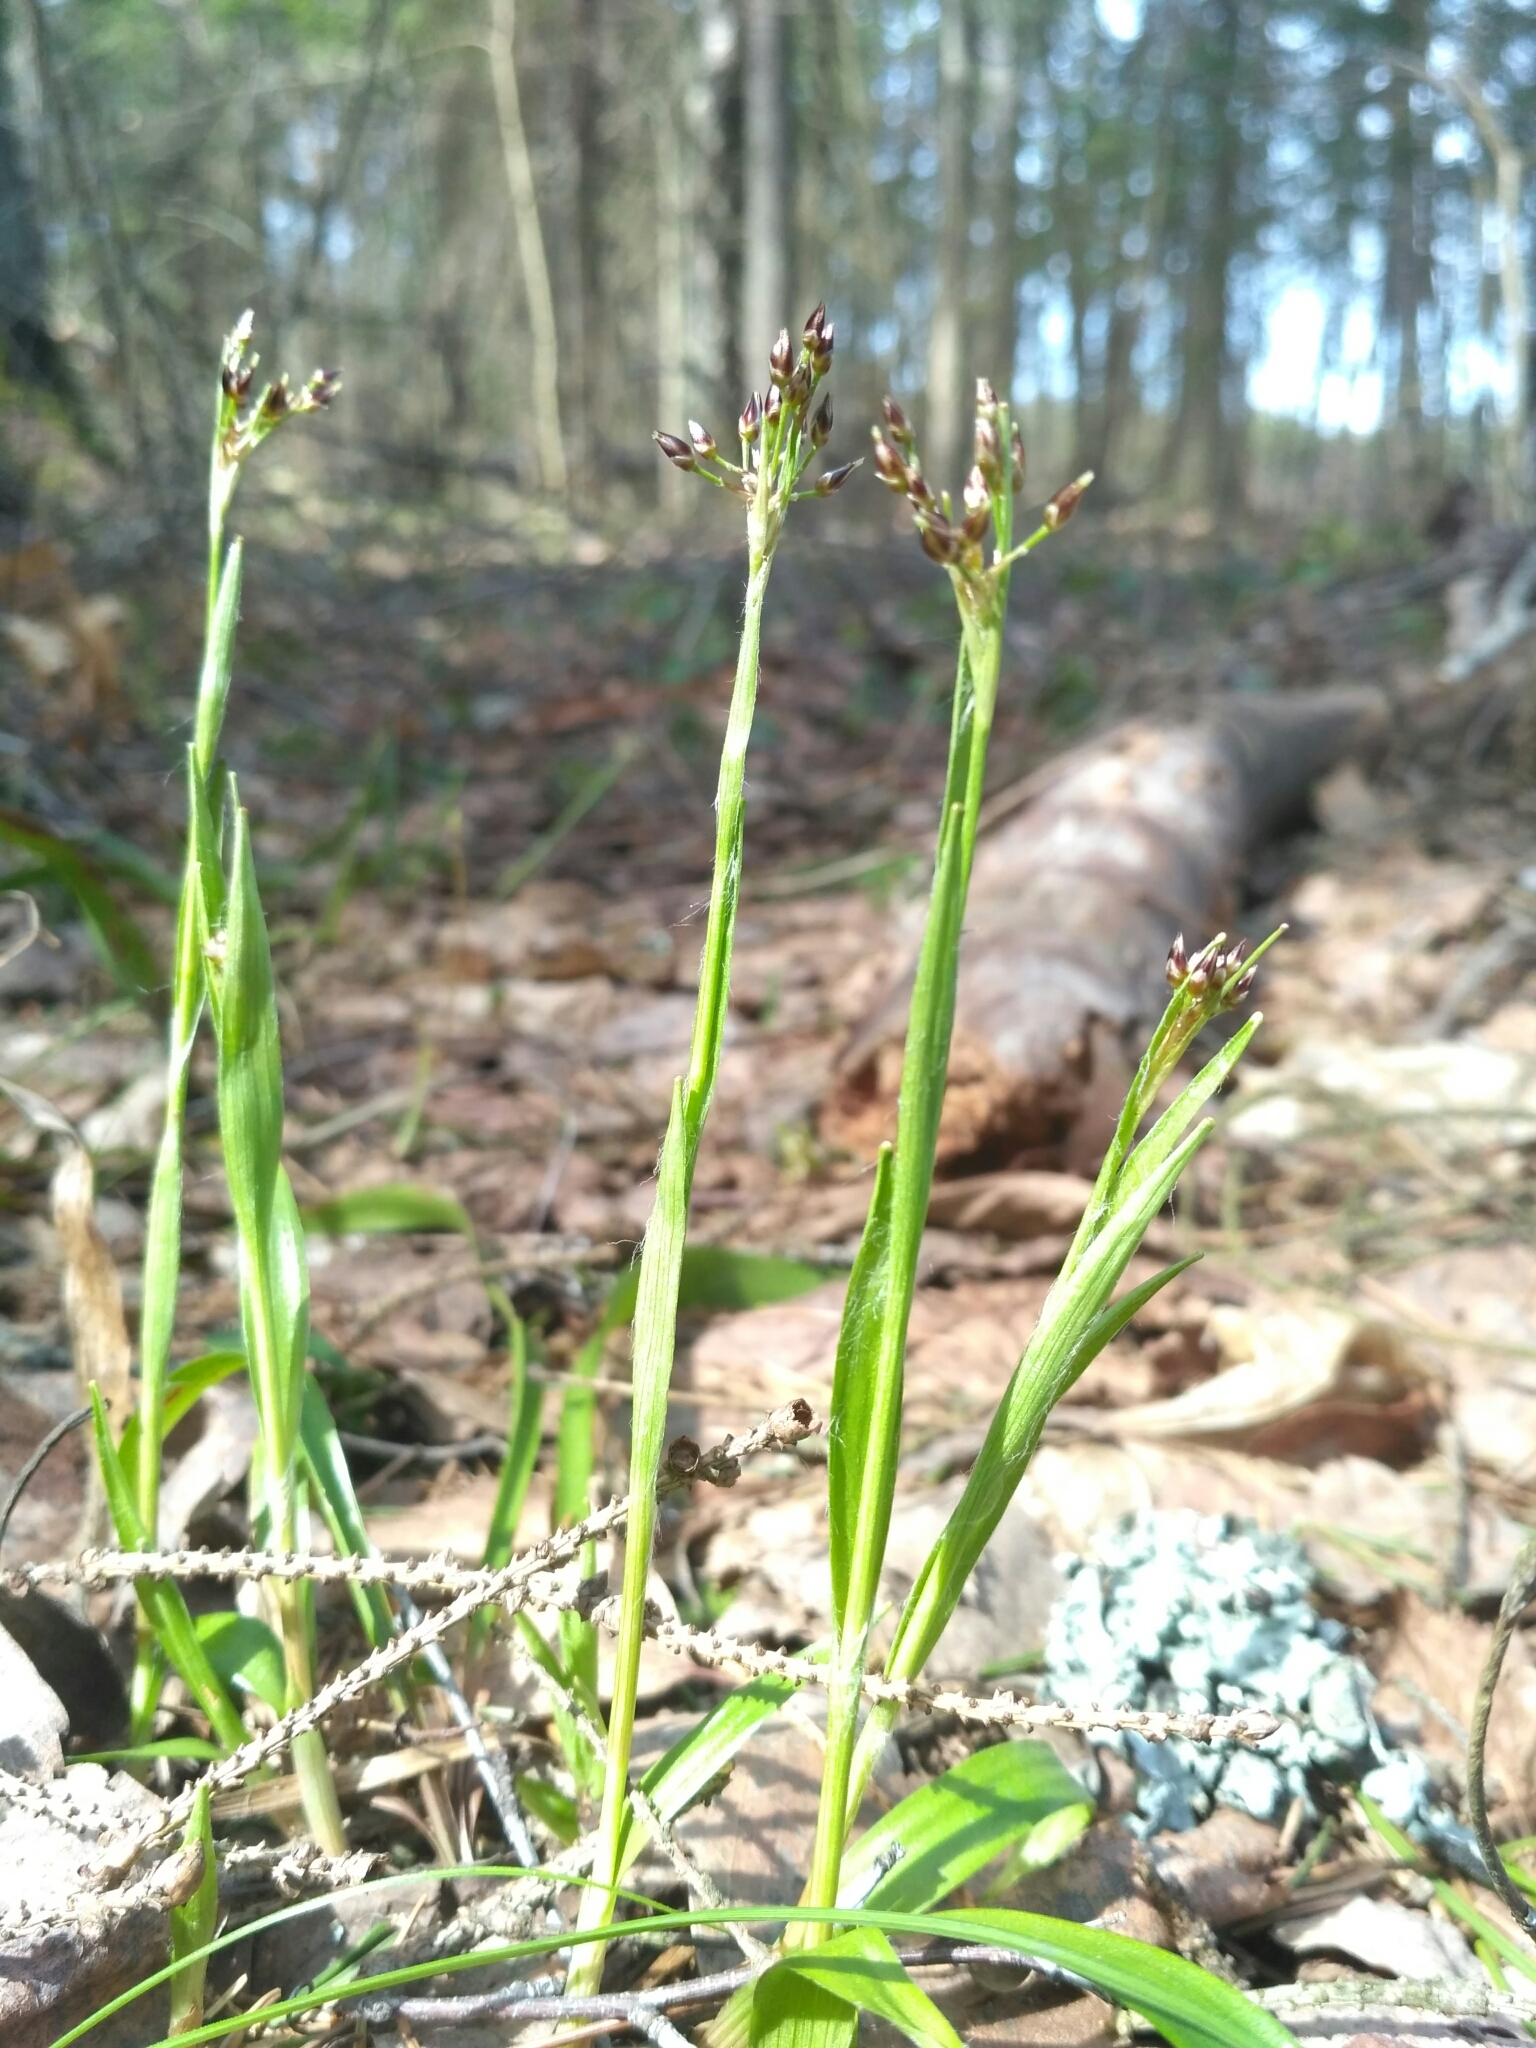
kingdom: Plantae
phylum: Tracheophyta
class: Liliopsida
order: Poales
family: Juncaceae
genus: Luzula
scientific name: Luzula pilosa
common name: Hairy wood-rush
